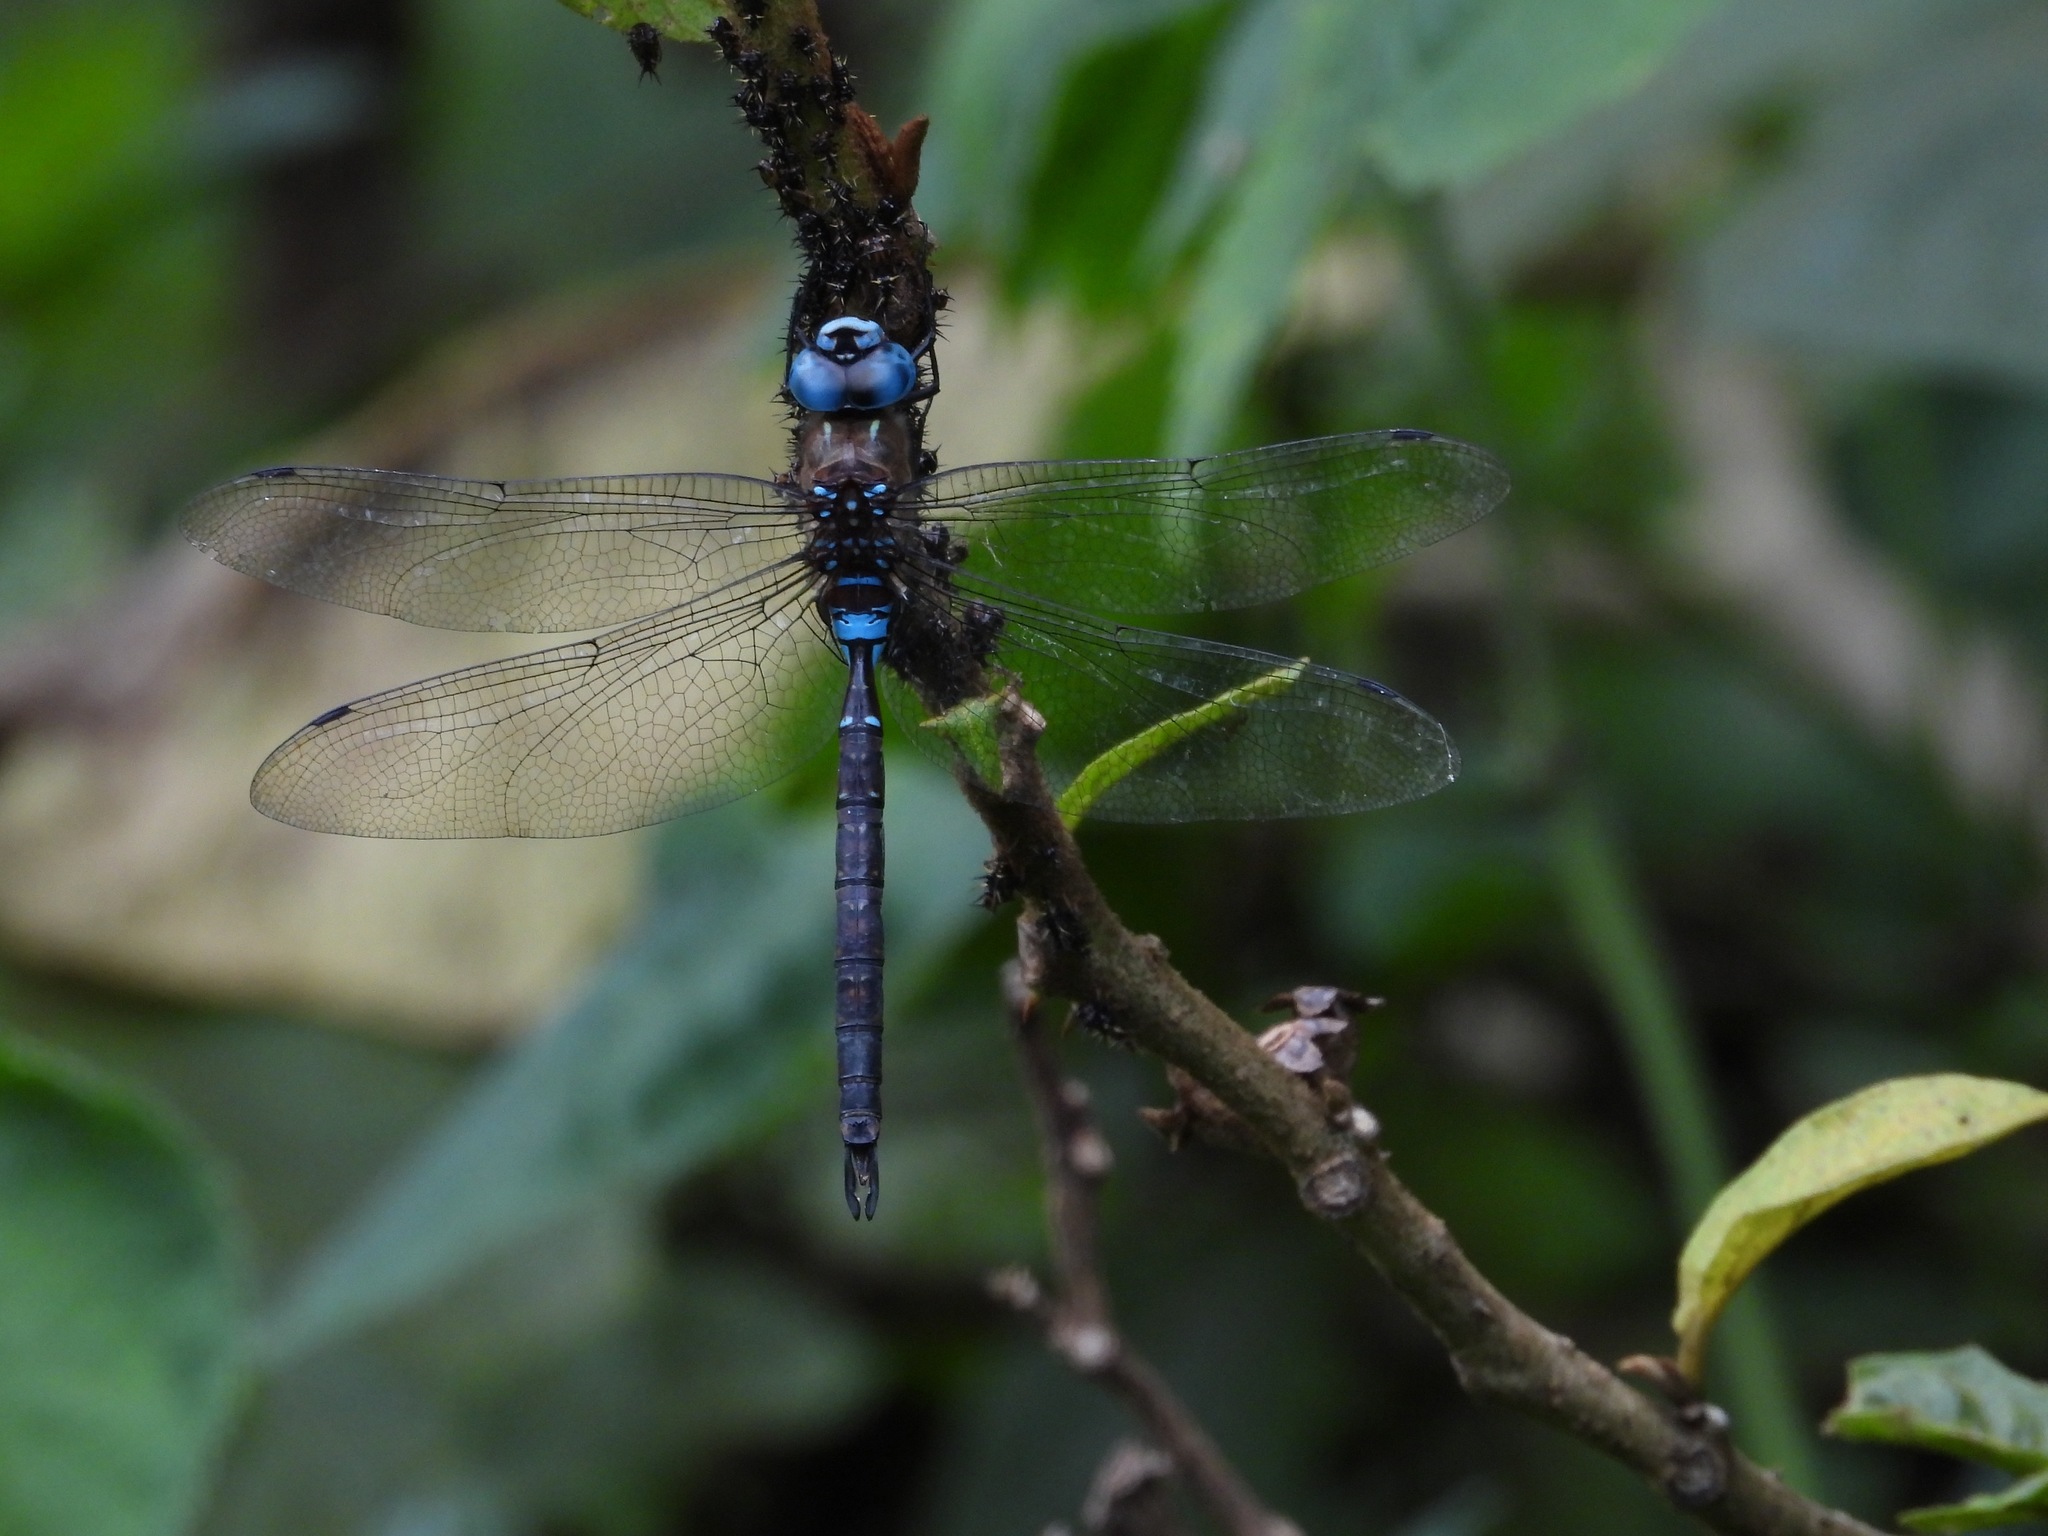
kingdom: Animalia
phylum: Arthropoda
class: Insecta
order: Odonata
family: Aeshnidae
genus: Rhionaeschna
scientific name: Rhionaeschna jalapensis
